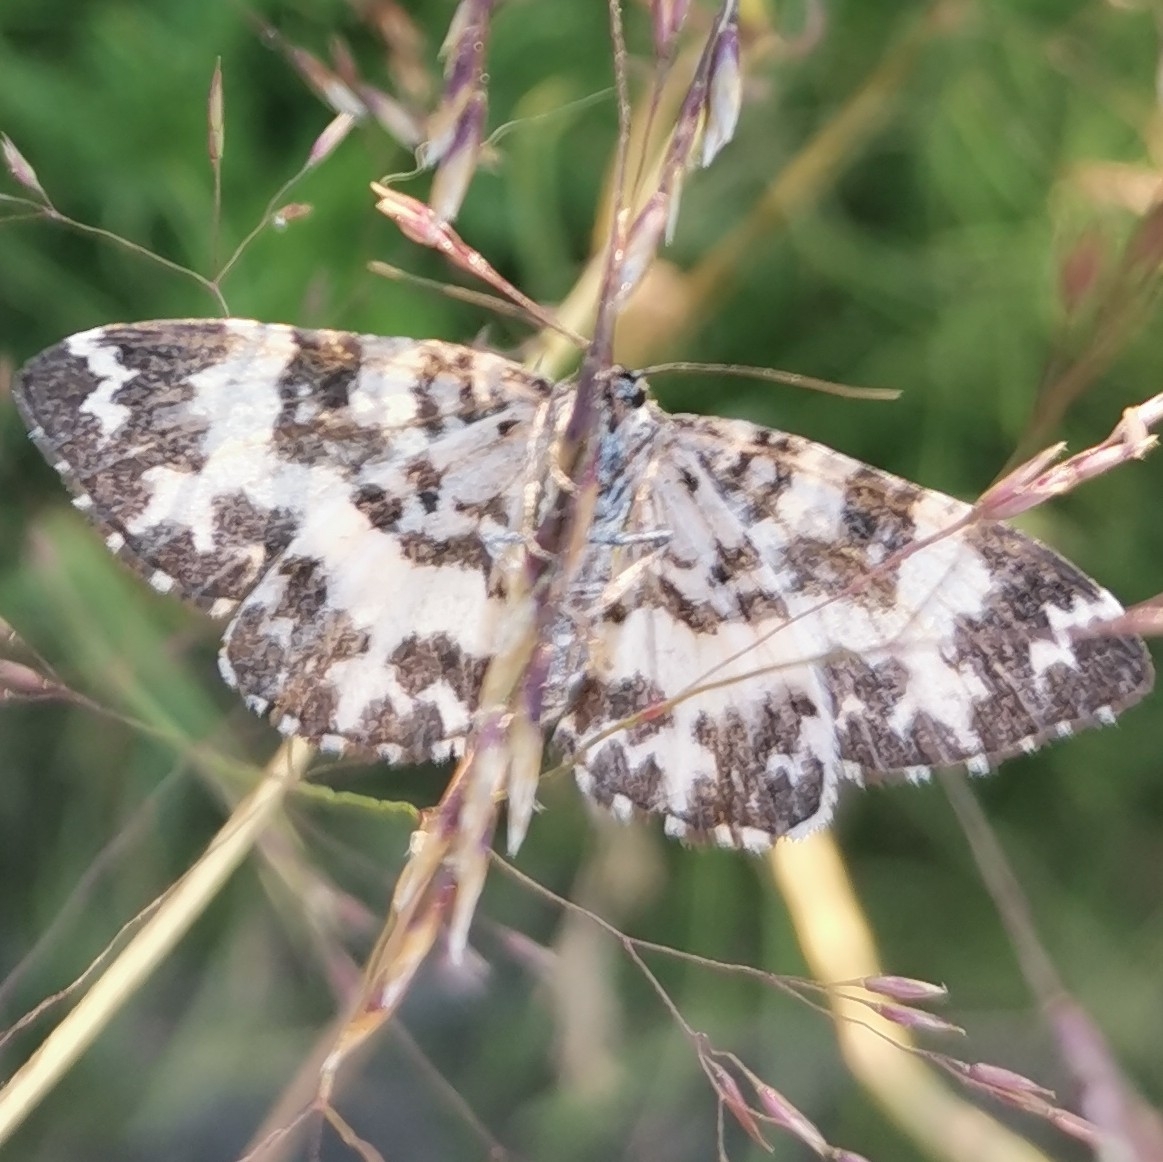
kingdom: Animalia
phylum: Arthropoda
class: Insecta
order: Lepidoptera
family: Geometridae
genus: Rheumaptera
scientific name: Rheumaptera hastata
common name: Argent & sable
